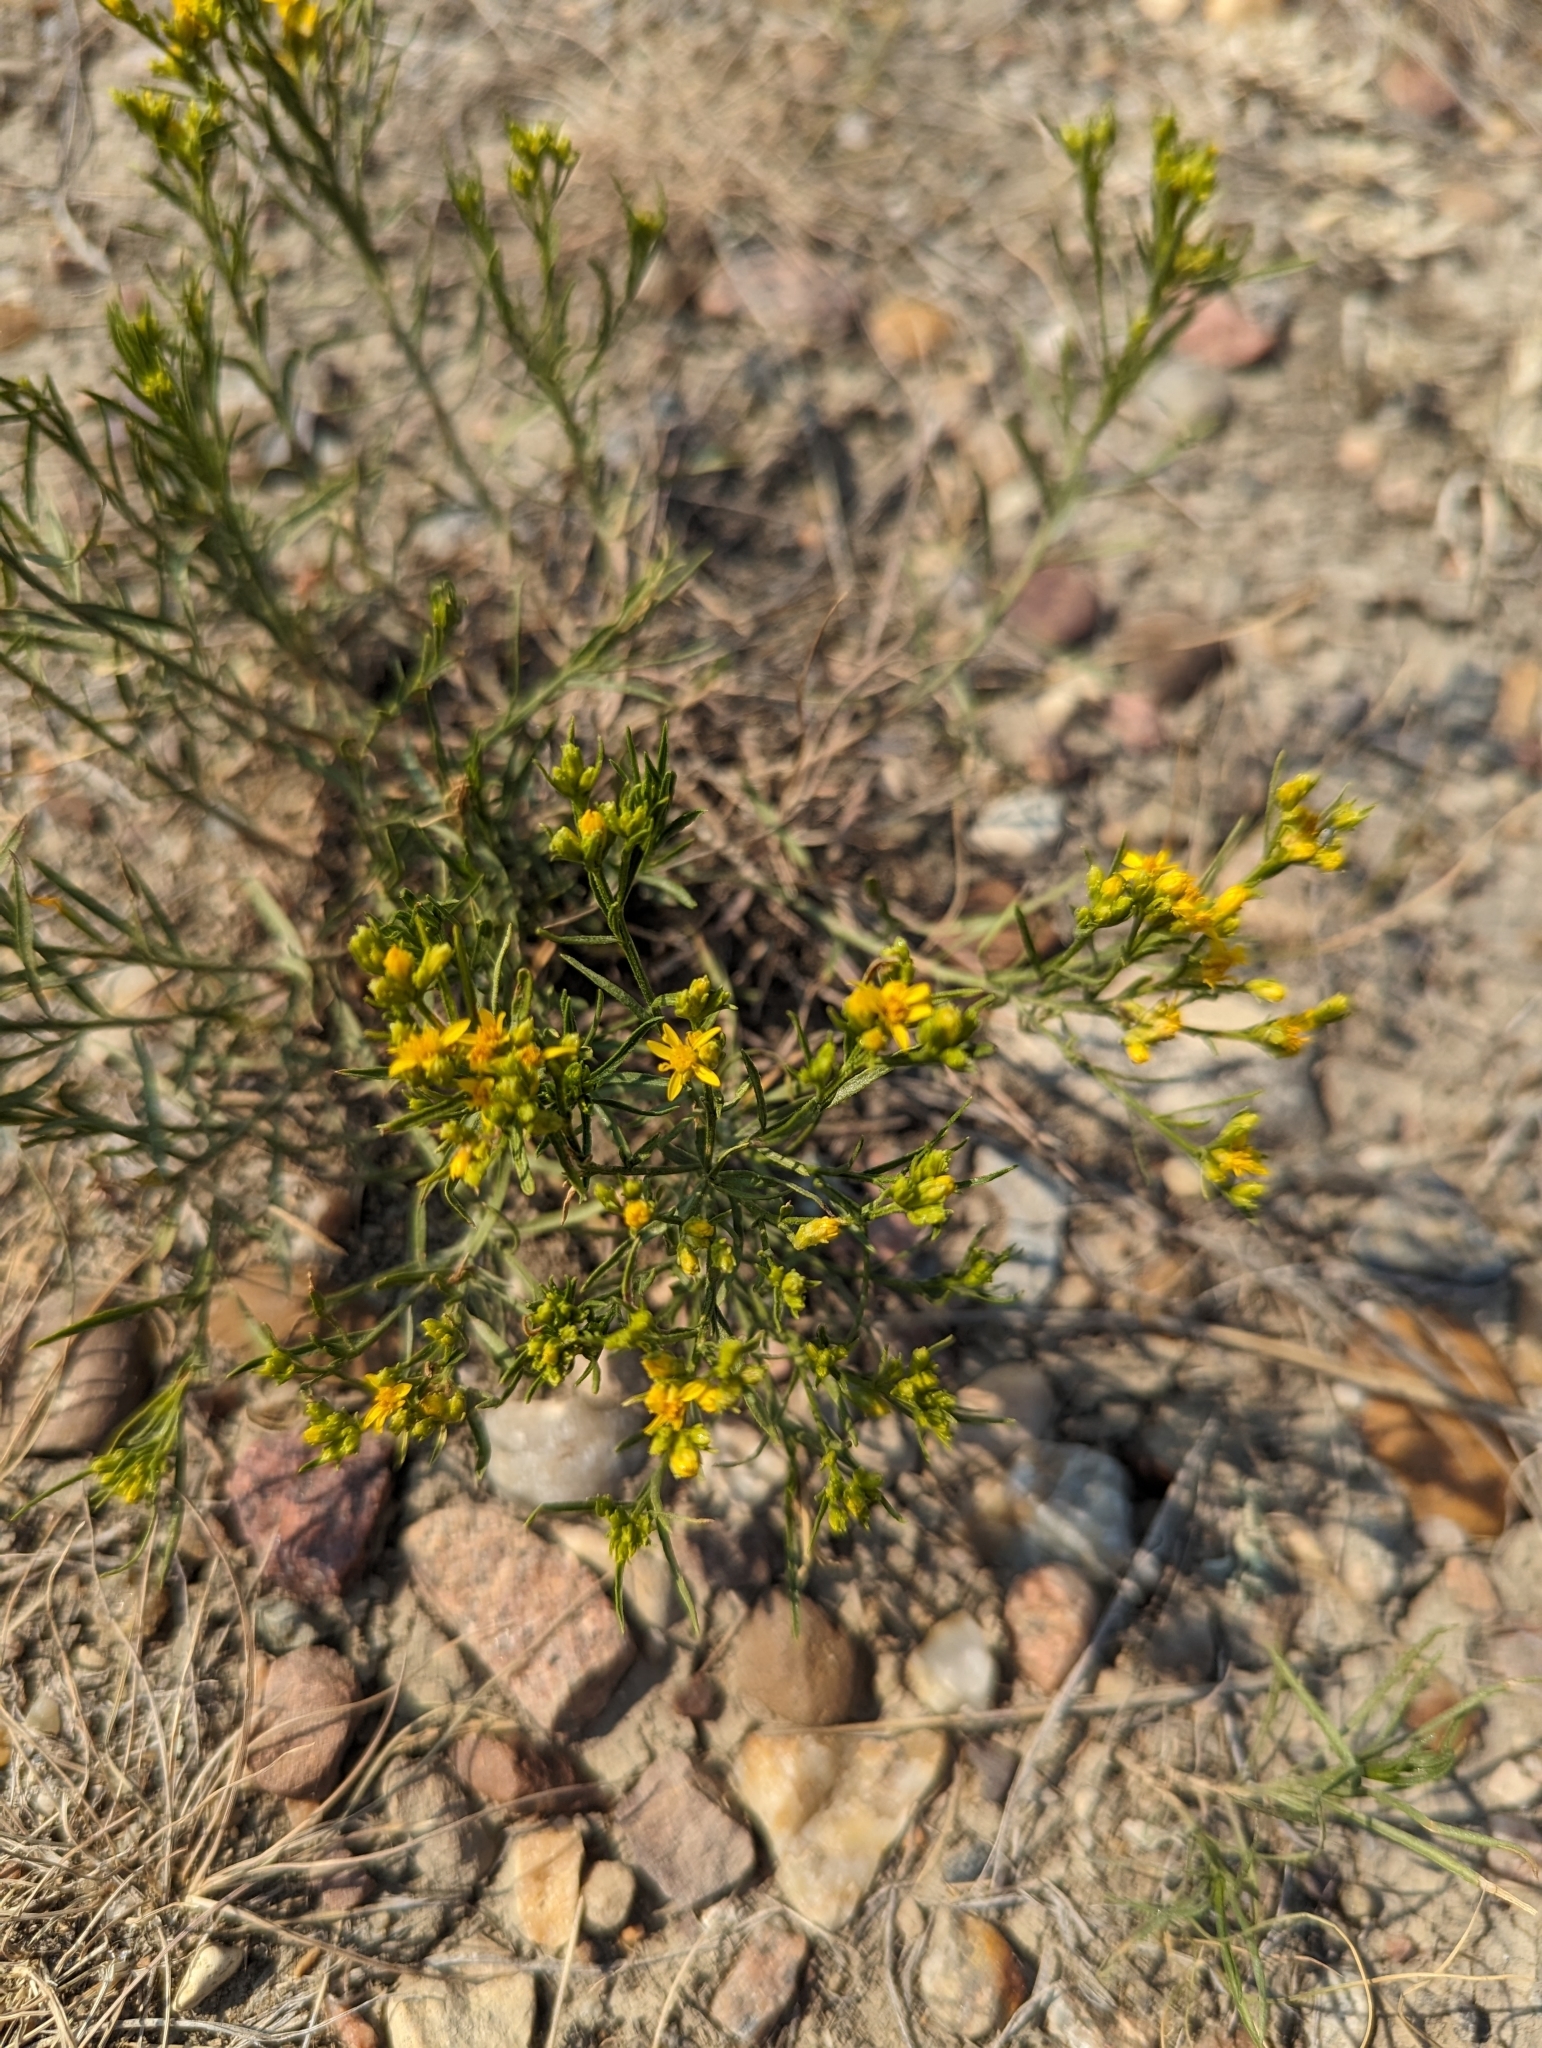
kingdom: Plantae
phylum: Tracheophyta
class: Magnoliopsida
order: Asterales
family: Asteraceae
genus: Gutierrezia
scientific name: Gutierrezia sarothrae
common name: Broom snakeweed
